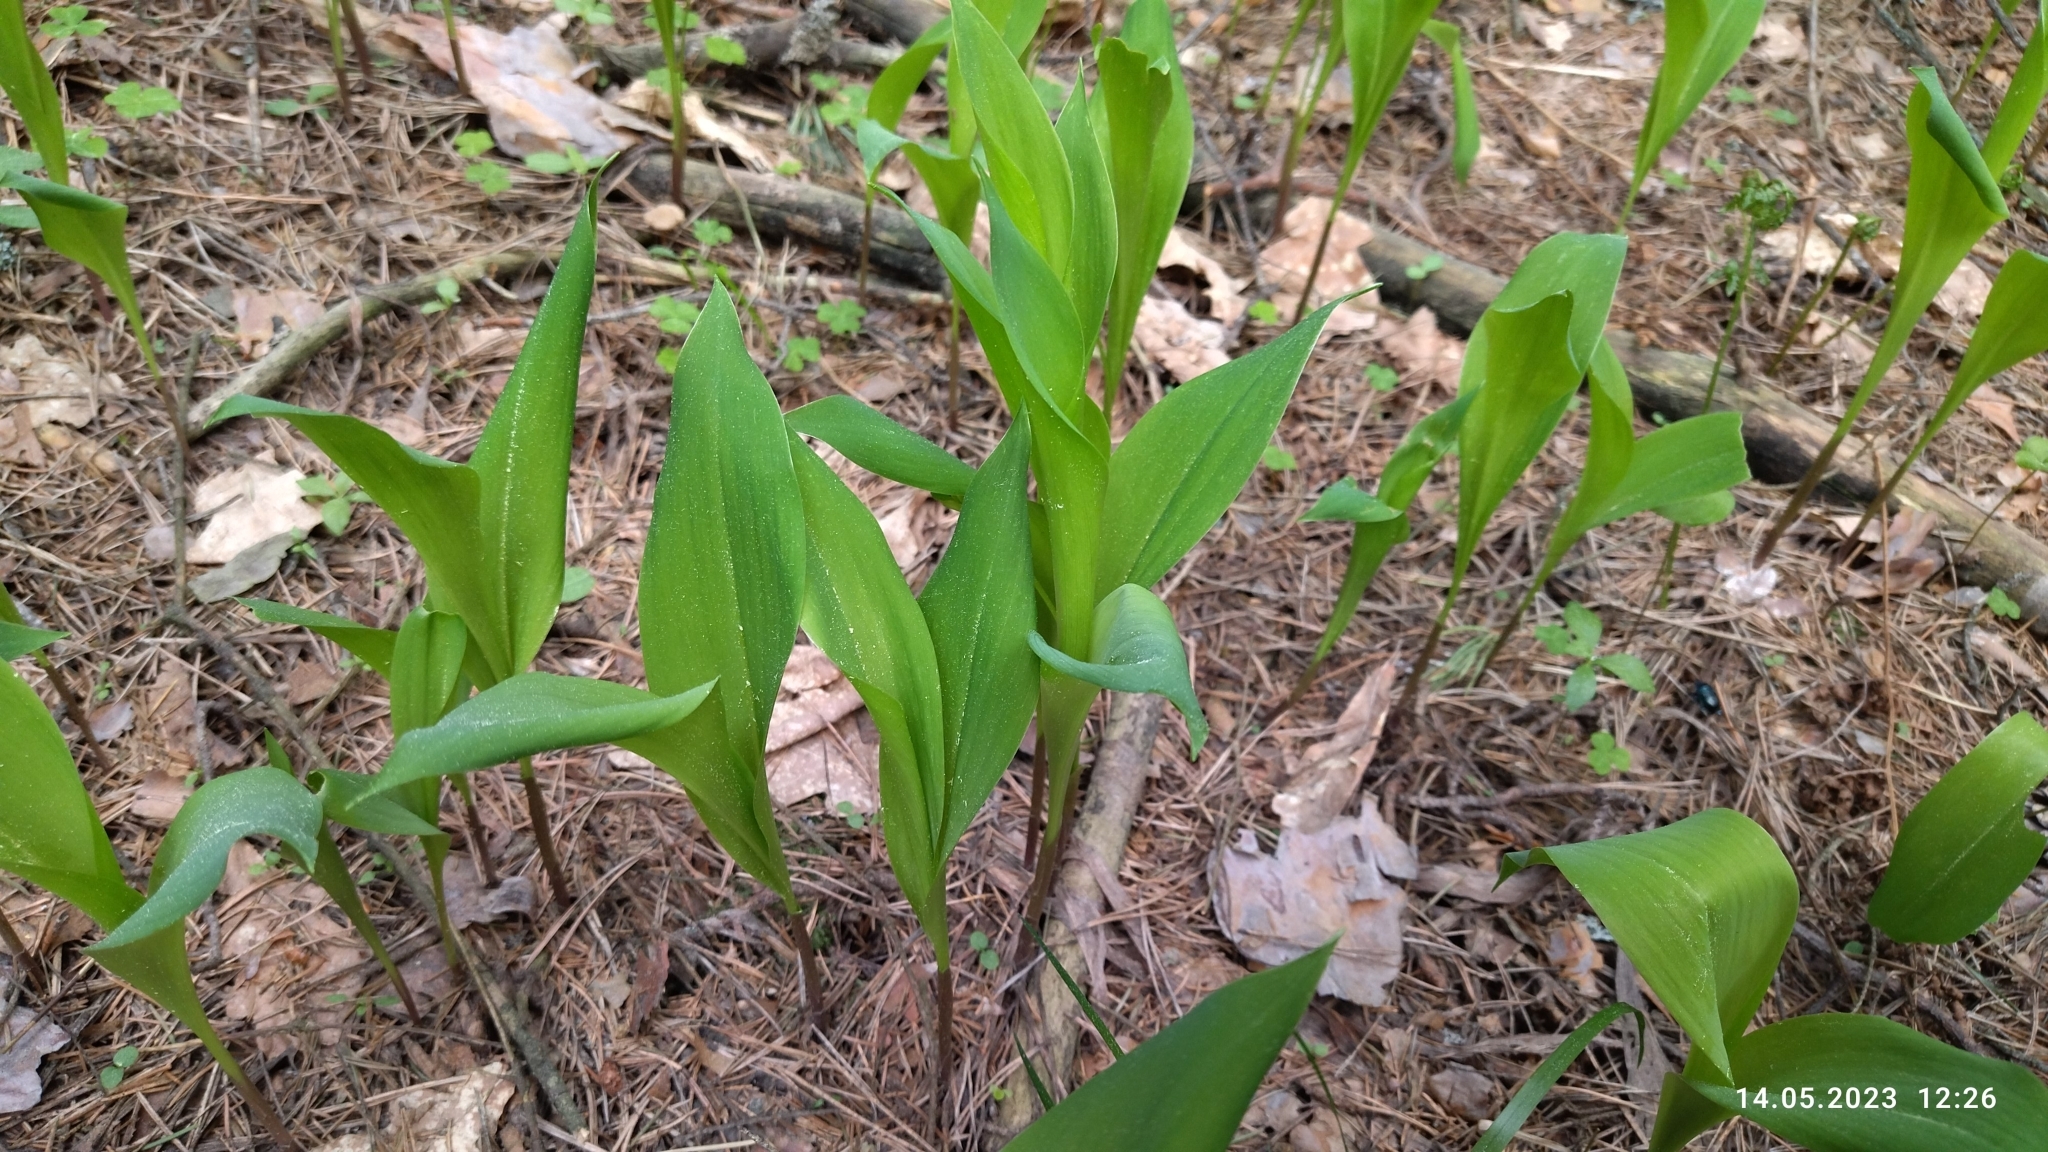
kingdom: Plantae
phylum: Tracheophyta
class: Liliopsida
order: Asparagales
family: Asparagaceae
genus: Convallaria
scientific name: Convallaria majalis
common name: Lily-of-the-valley
